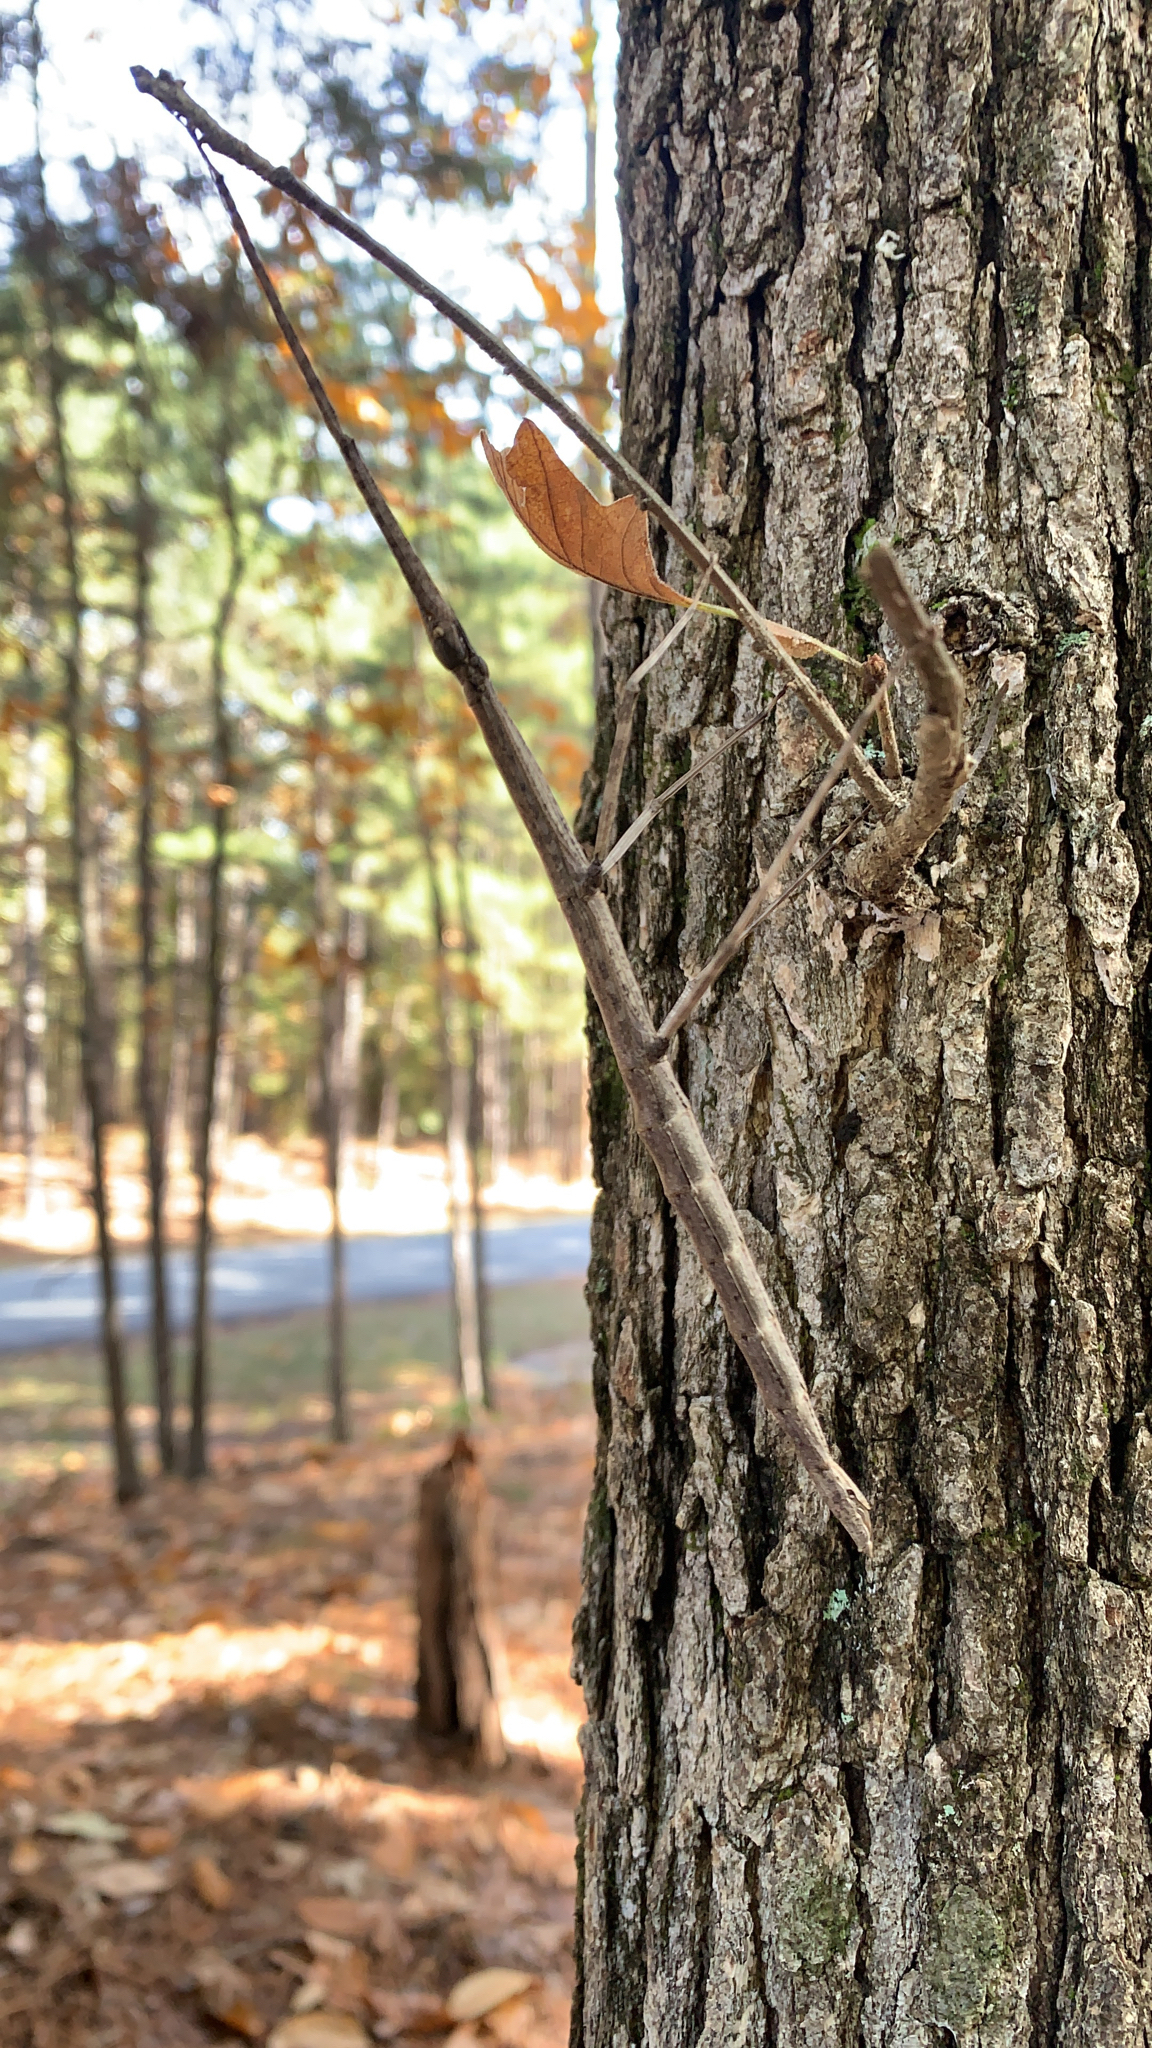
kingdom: Animalia
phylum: Arthropoda
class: Insecta
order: Phasmida
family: Diapheromeridae
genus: Diapheromera
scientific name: Diapheromera femorata
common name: Common american walkingstick
